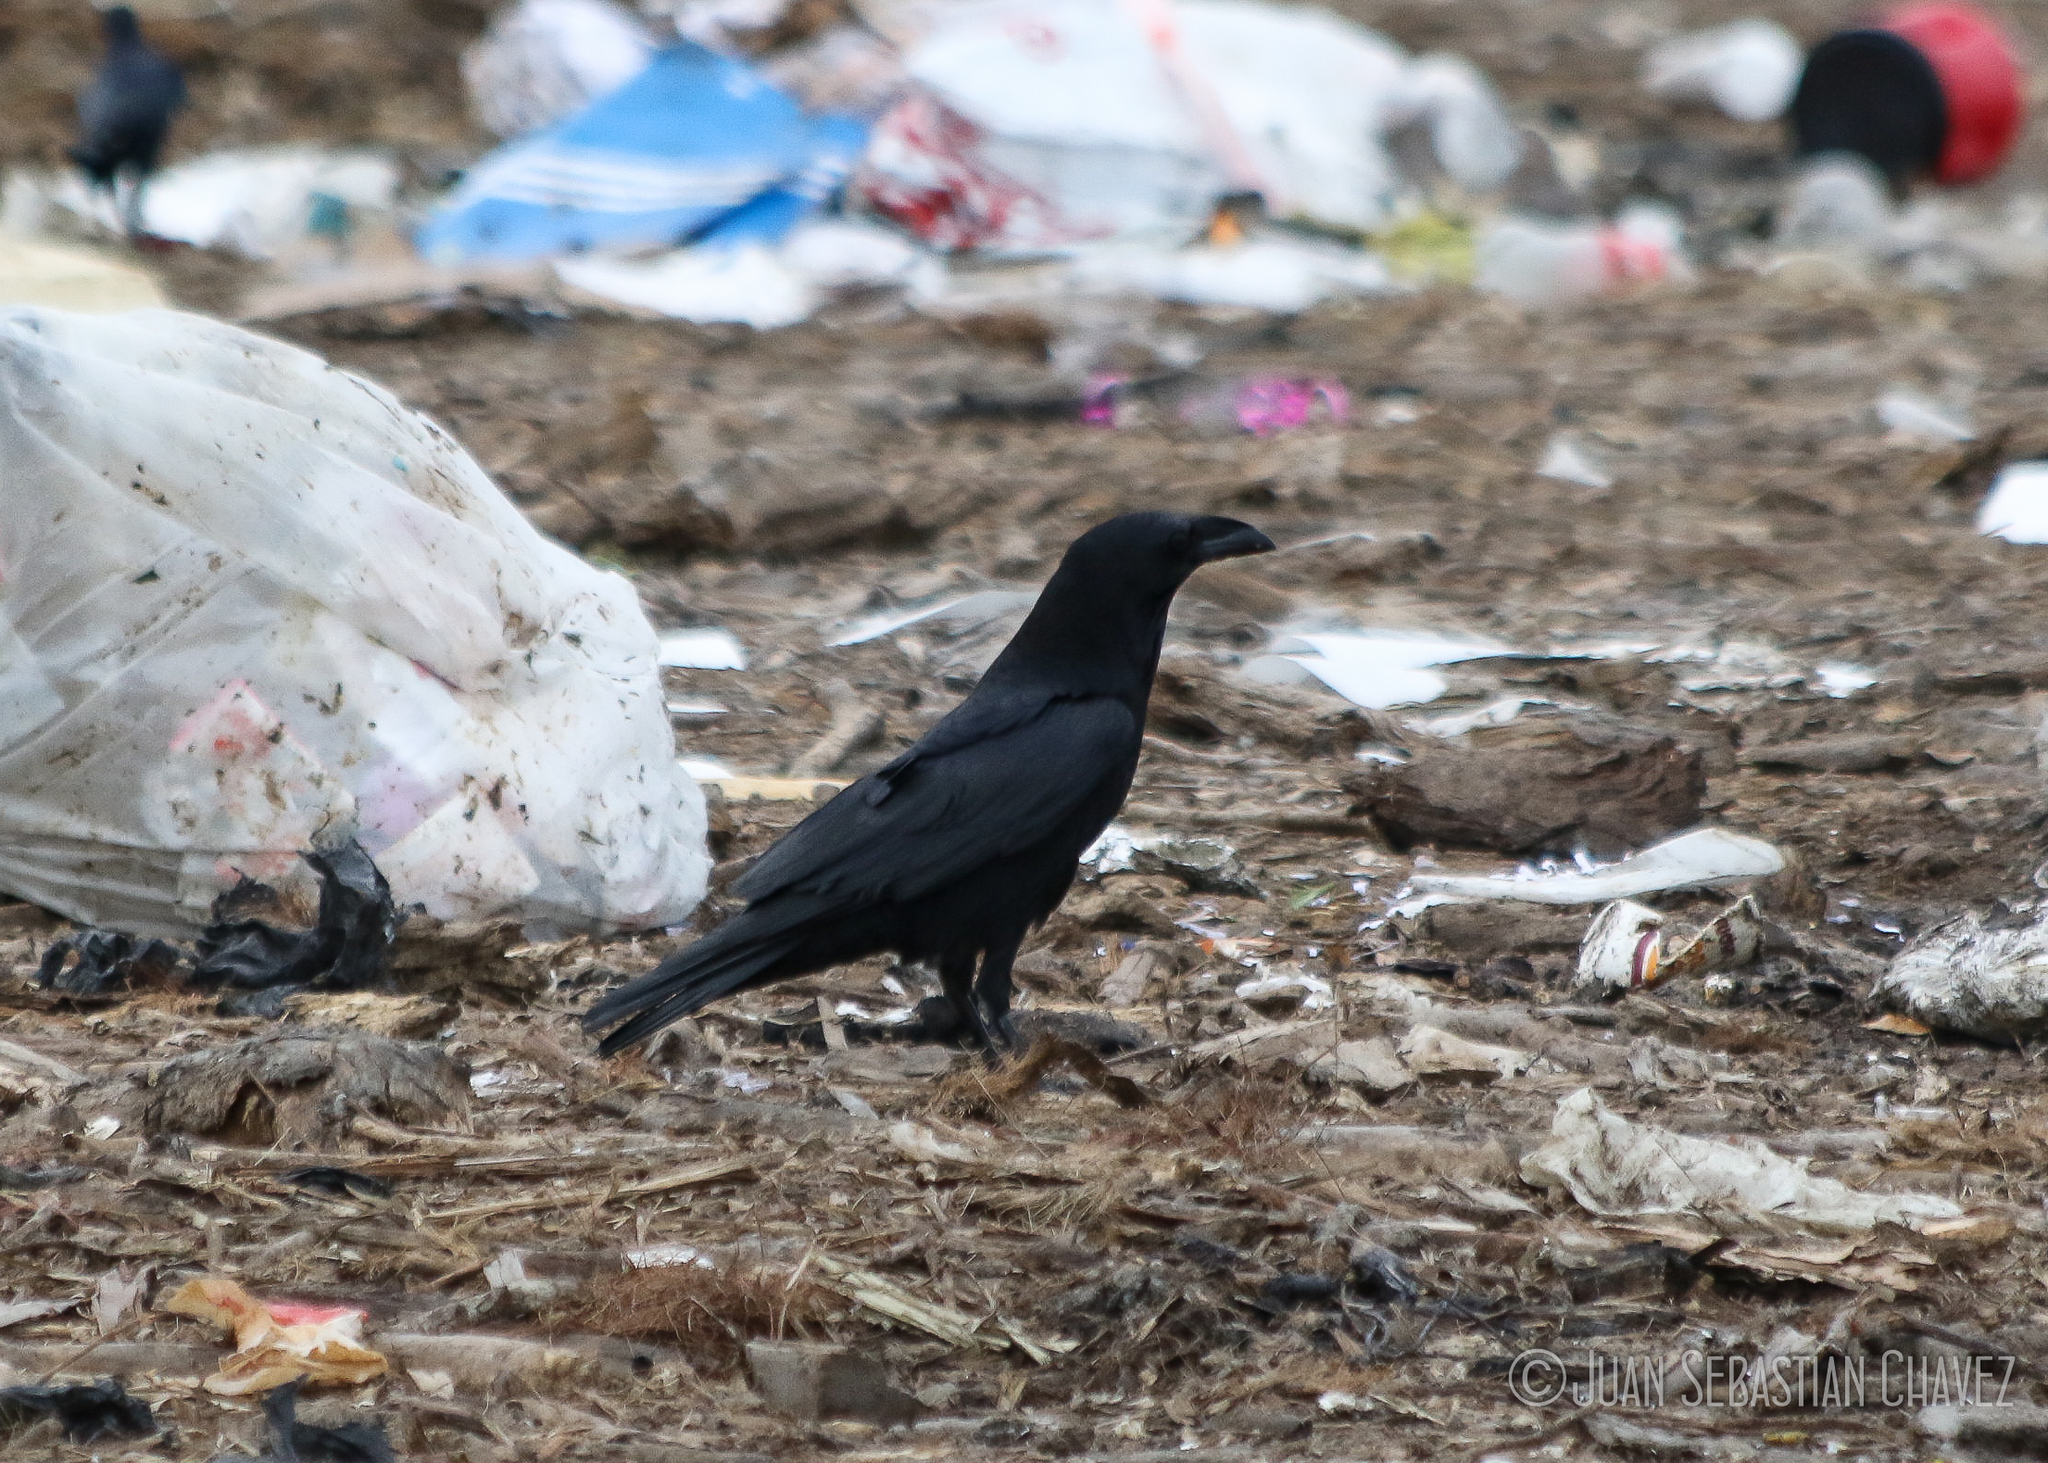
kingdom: Animalia
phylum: Chordata
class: Aves
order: Passeriformes
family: Corvidae
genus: Corvus
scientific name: Corvus cryptoleucus
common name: Chihuahuan raven
